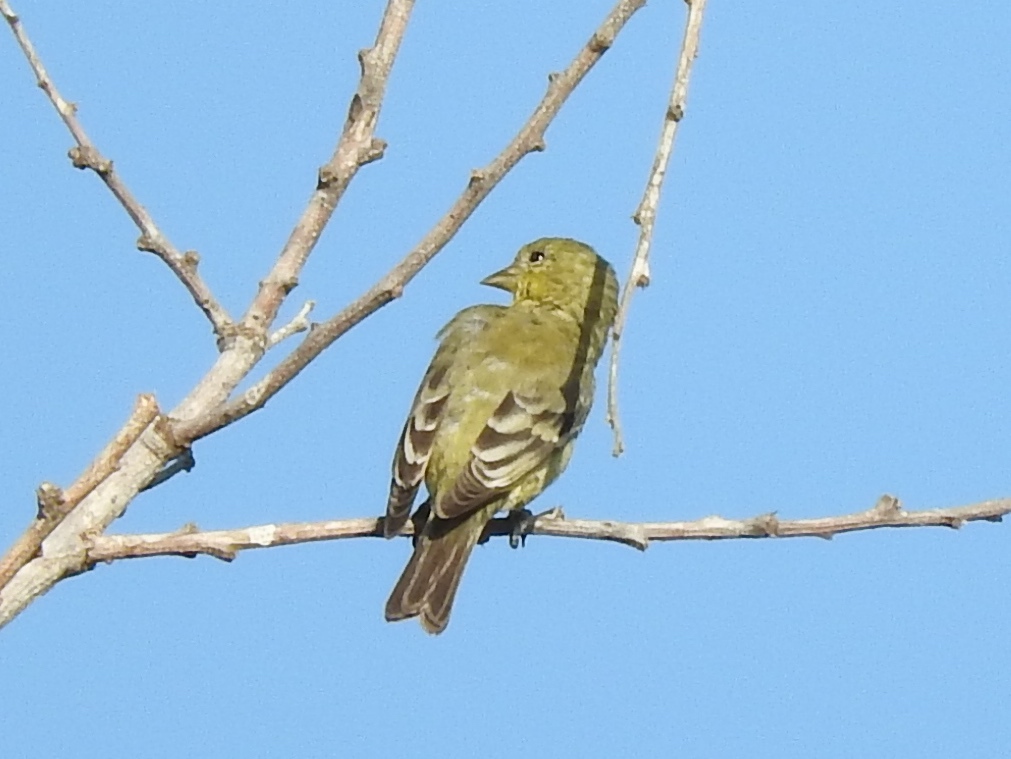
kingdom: Animalia
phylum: Chordata
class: Aves
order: Passeriformes
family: Fringillidae
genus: Spinus
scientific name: Spinus psaltria
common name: Lesser goldfinch
